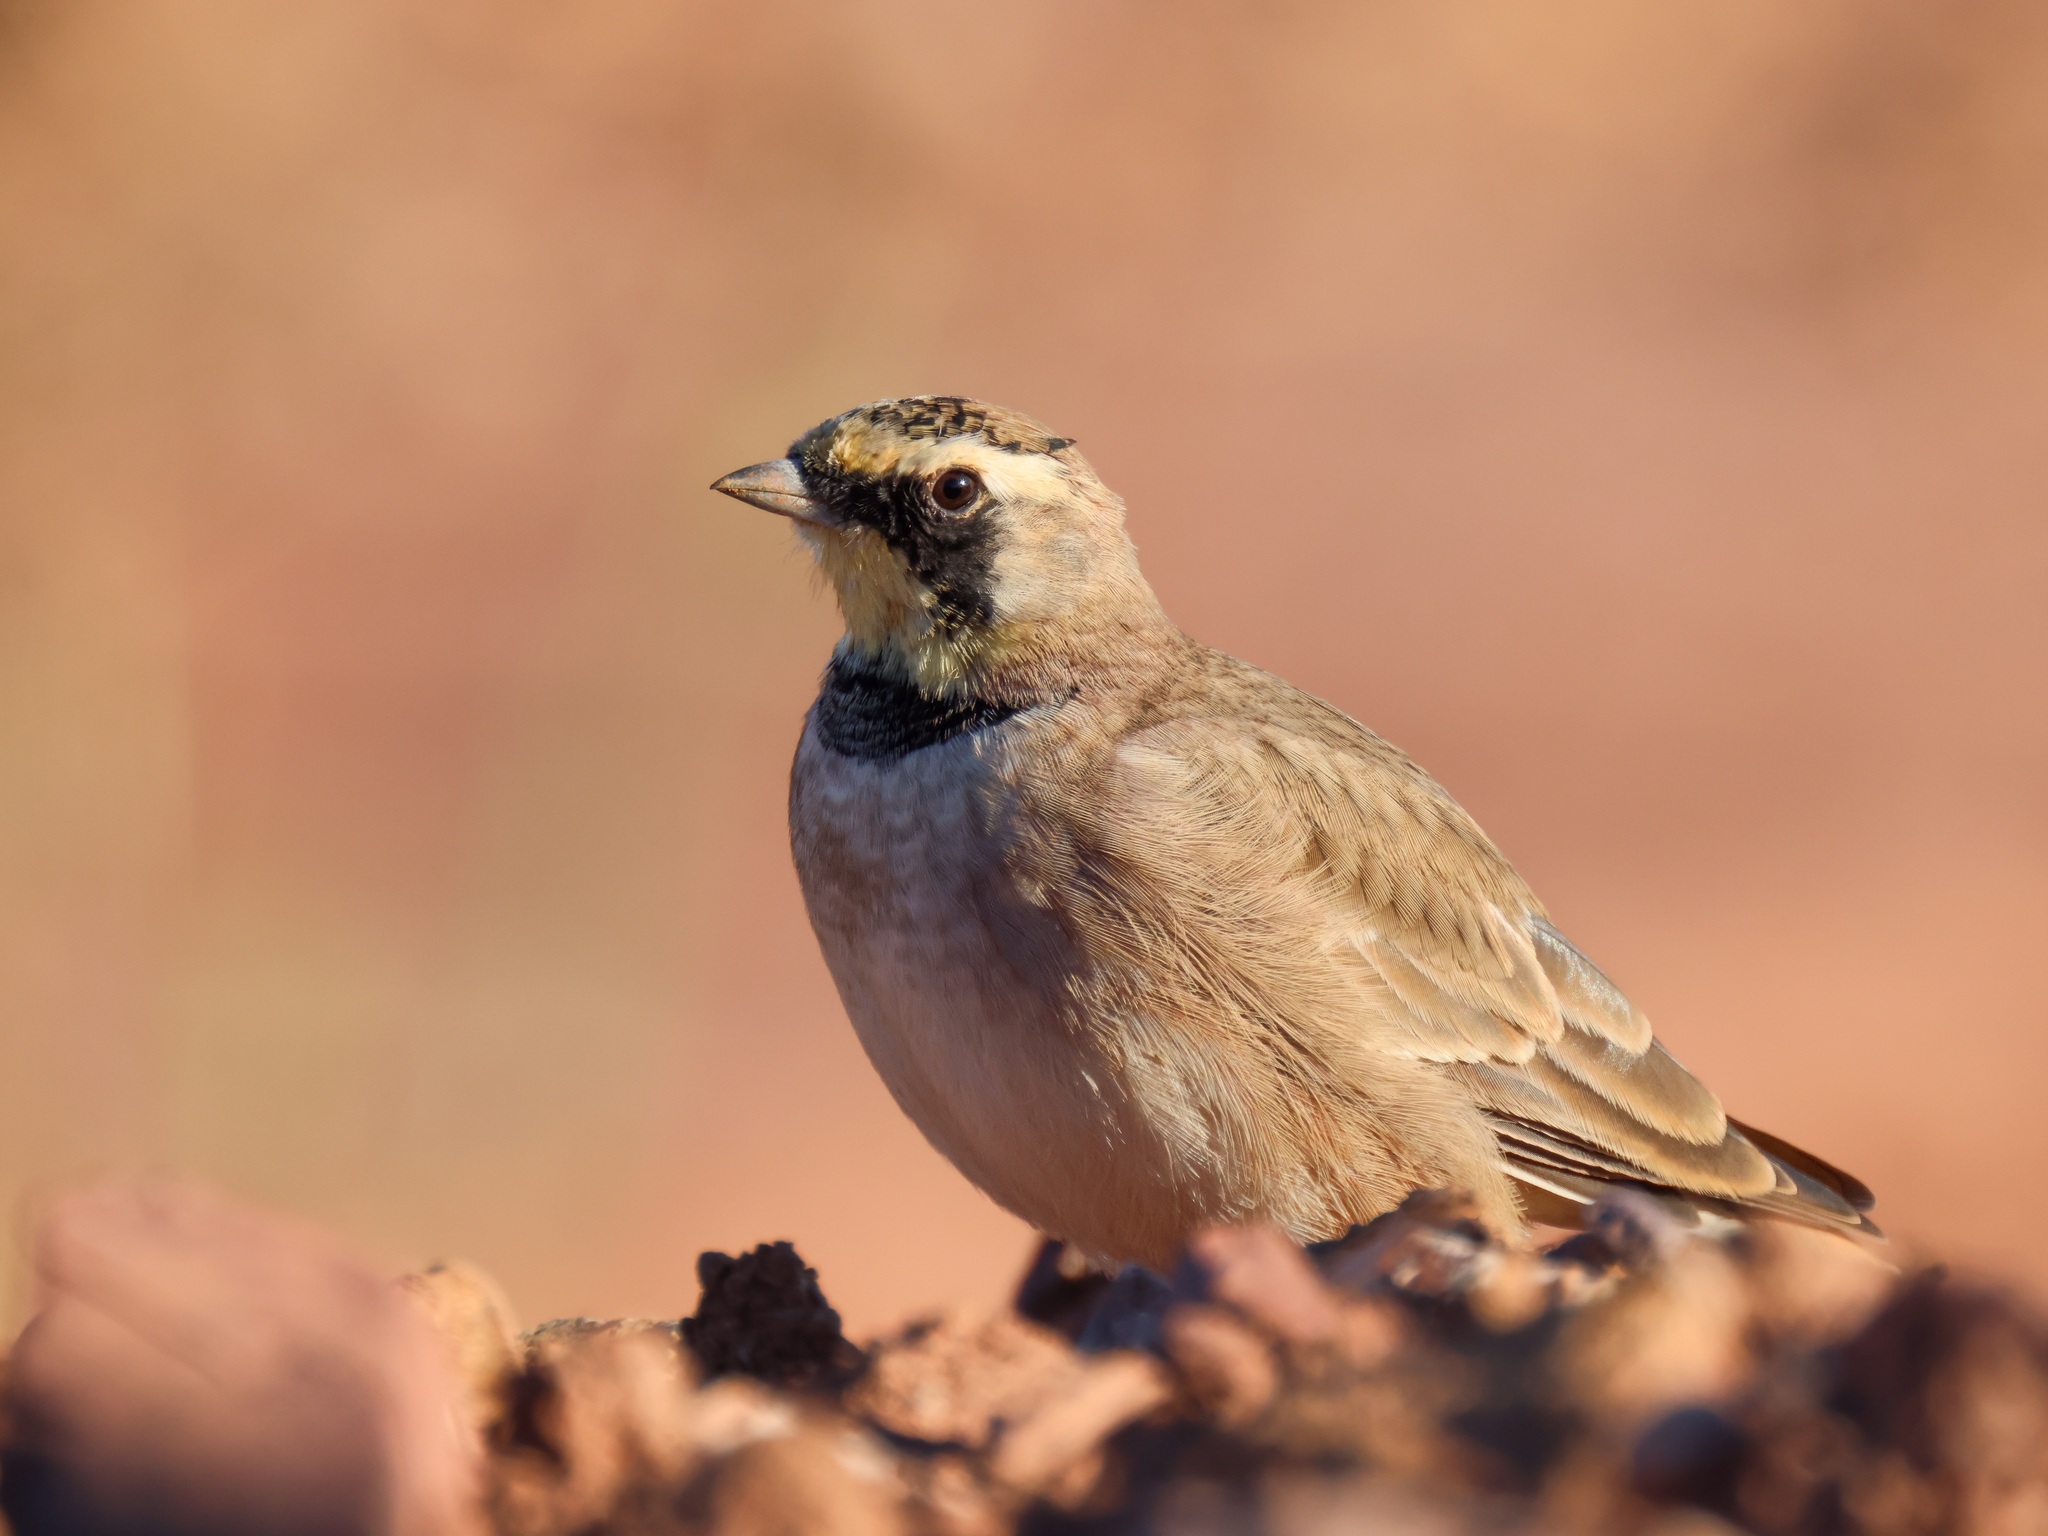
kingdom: Animalia
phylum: Chordata
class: Aves
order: Passeriformes
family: Alaudidae
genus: Eremophila
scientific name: Eremophila alpestris
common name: Horned lark
